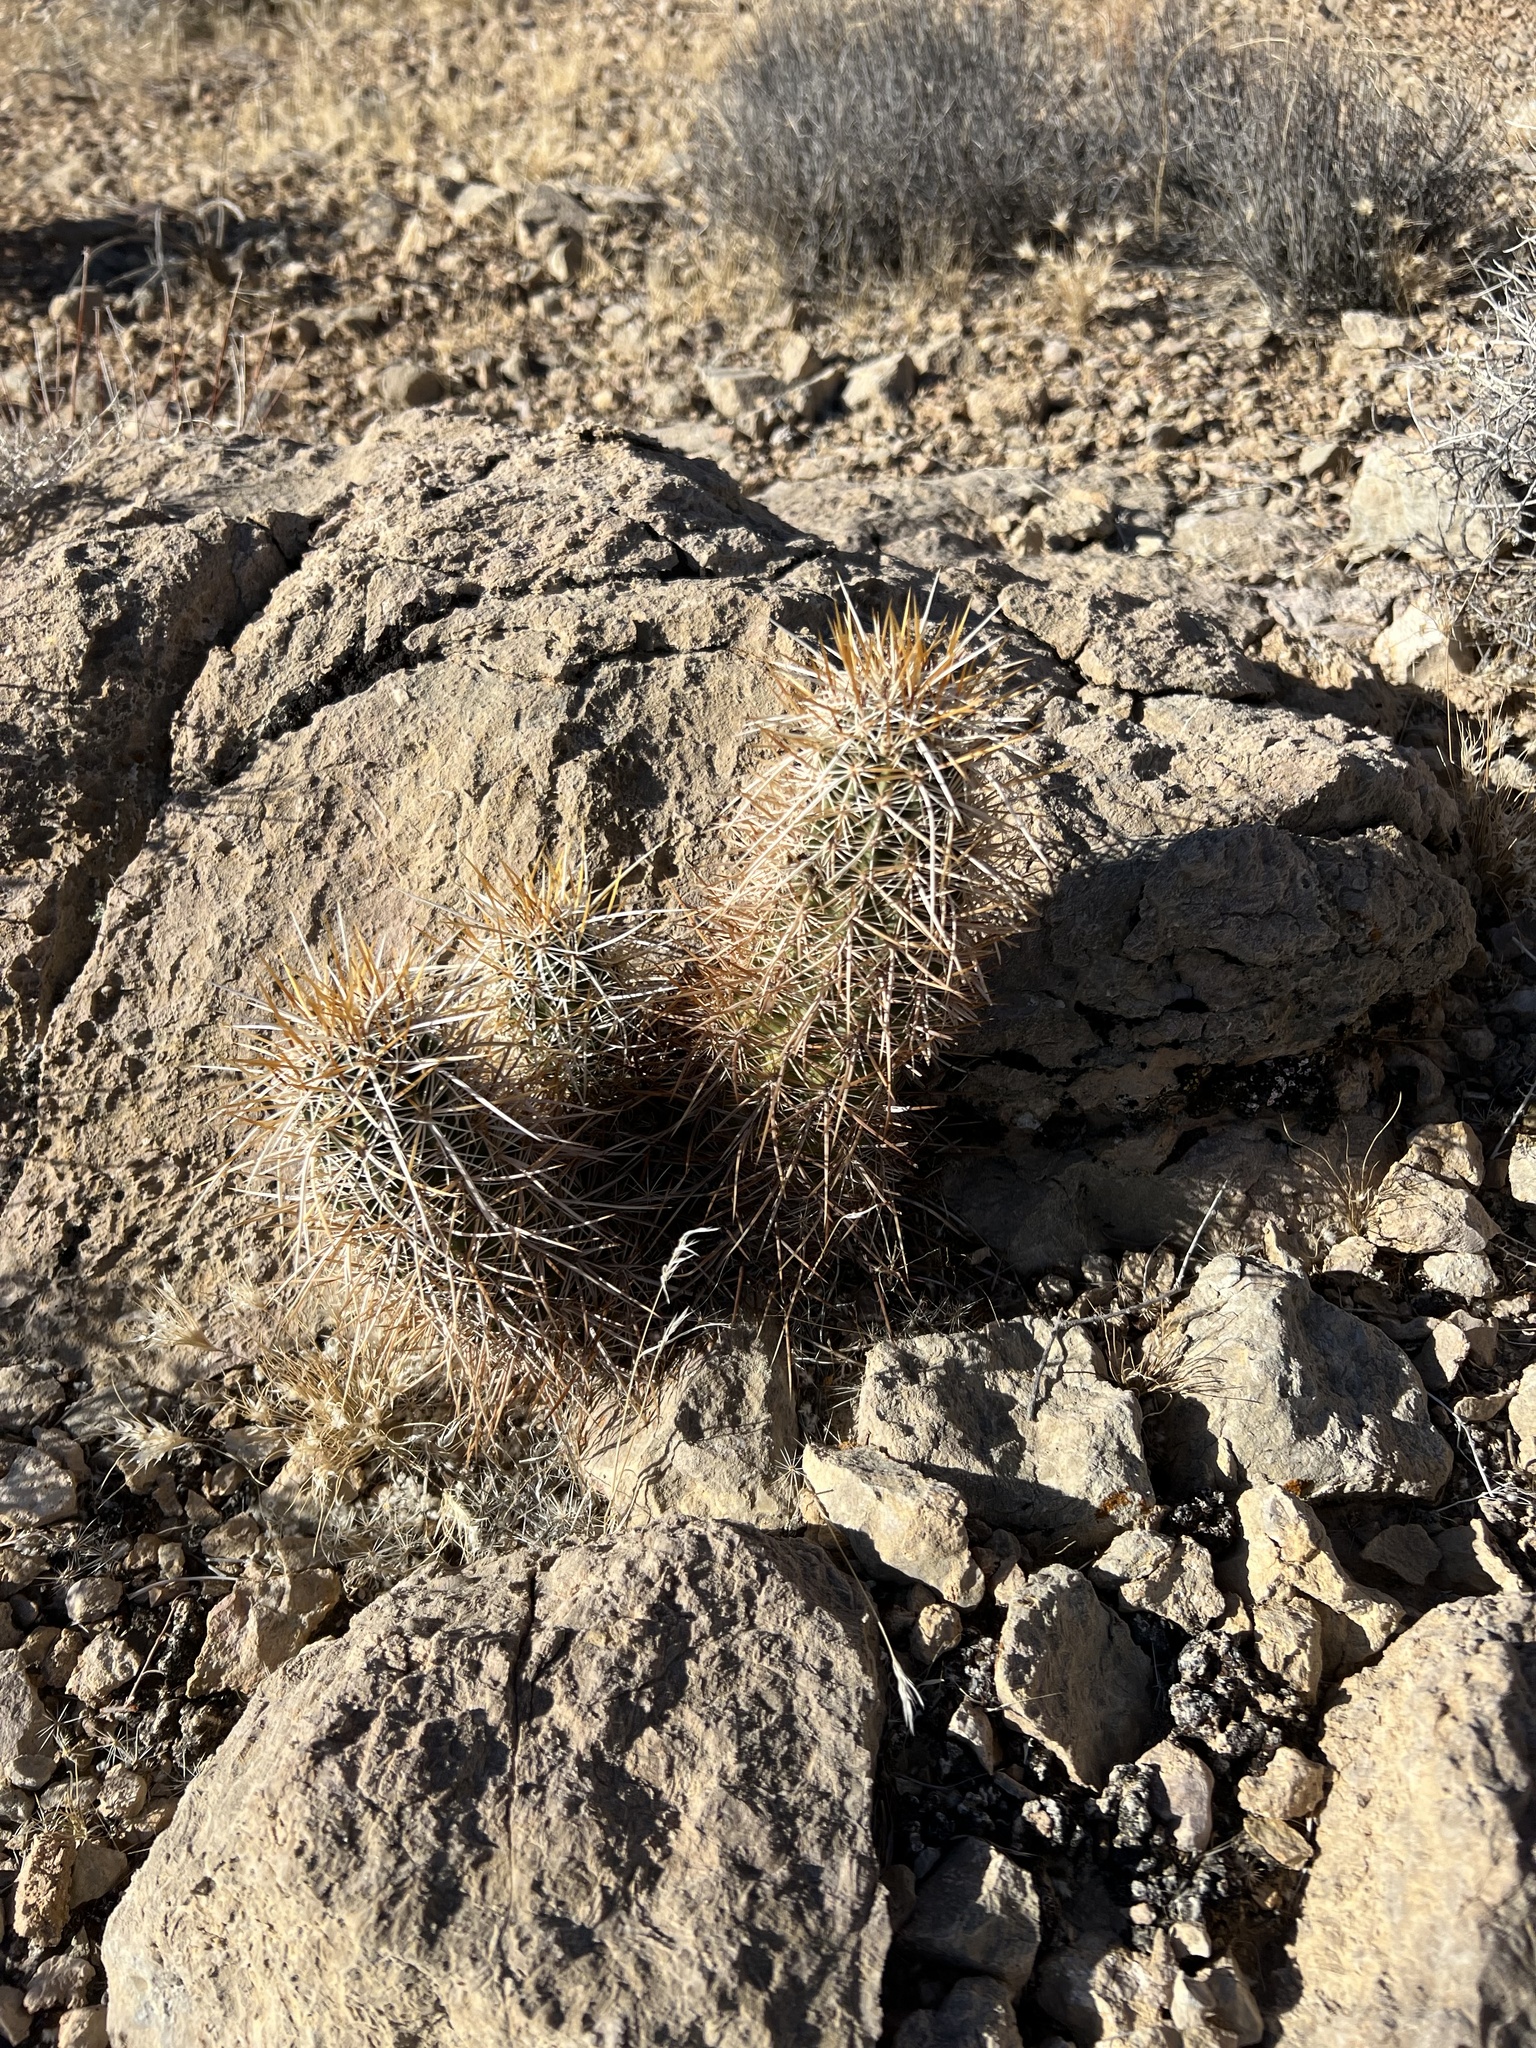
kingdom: Plantae
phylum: Tracheophyta
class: Magnoliopsida
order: Caryophyllales
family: Cactaceae
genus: Echinocereus
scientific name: Echinocereus engelmannii
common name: Engelmann's hedgehog cactus
